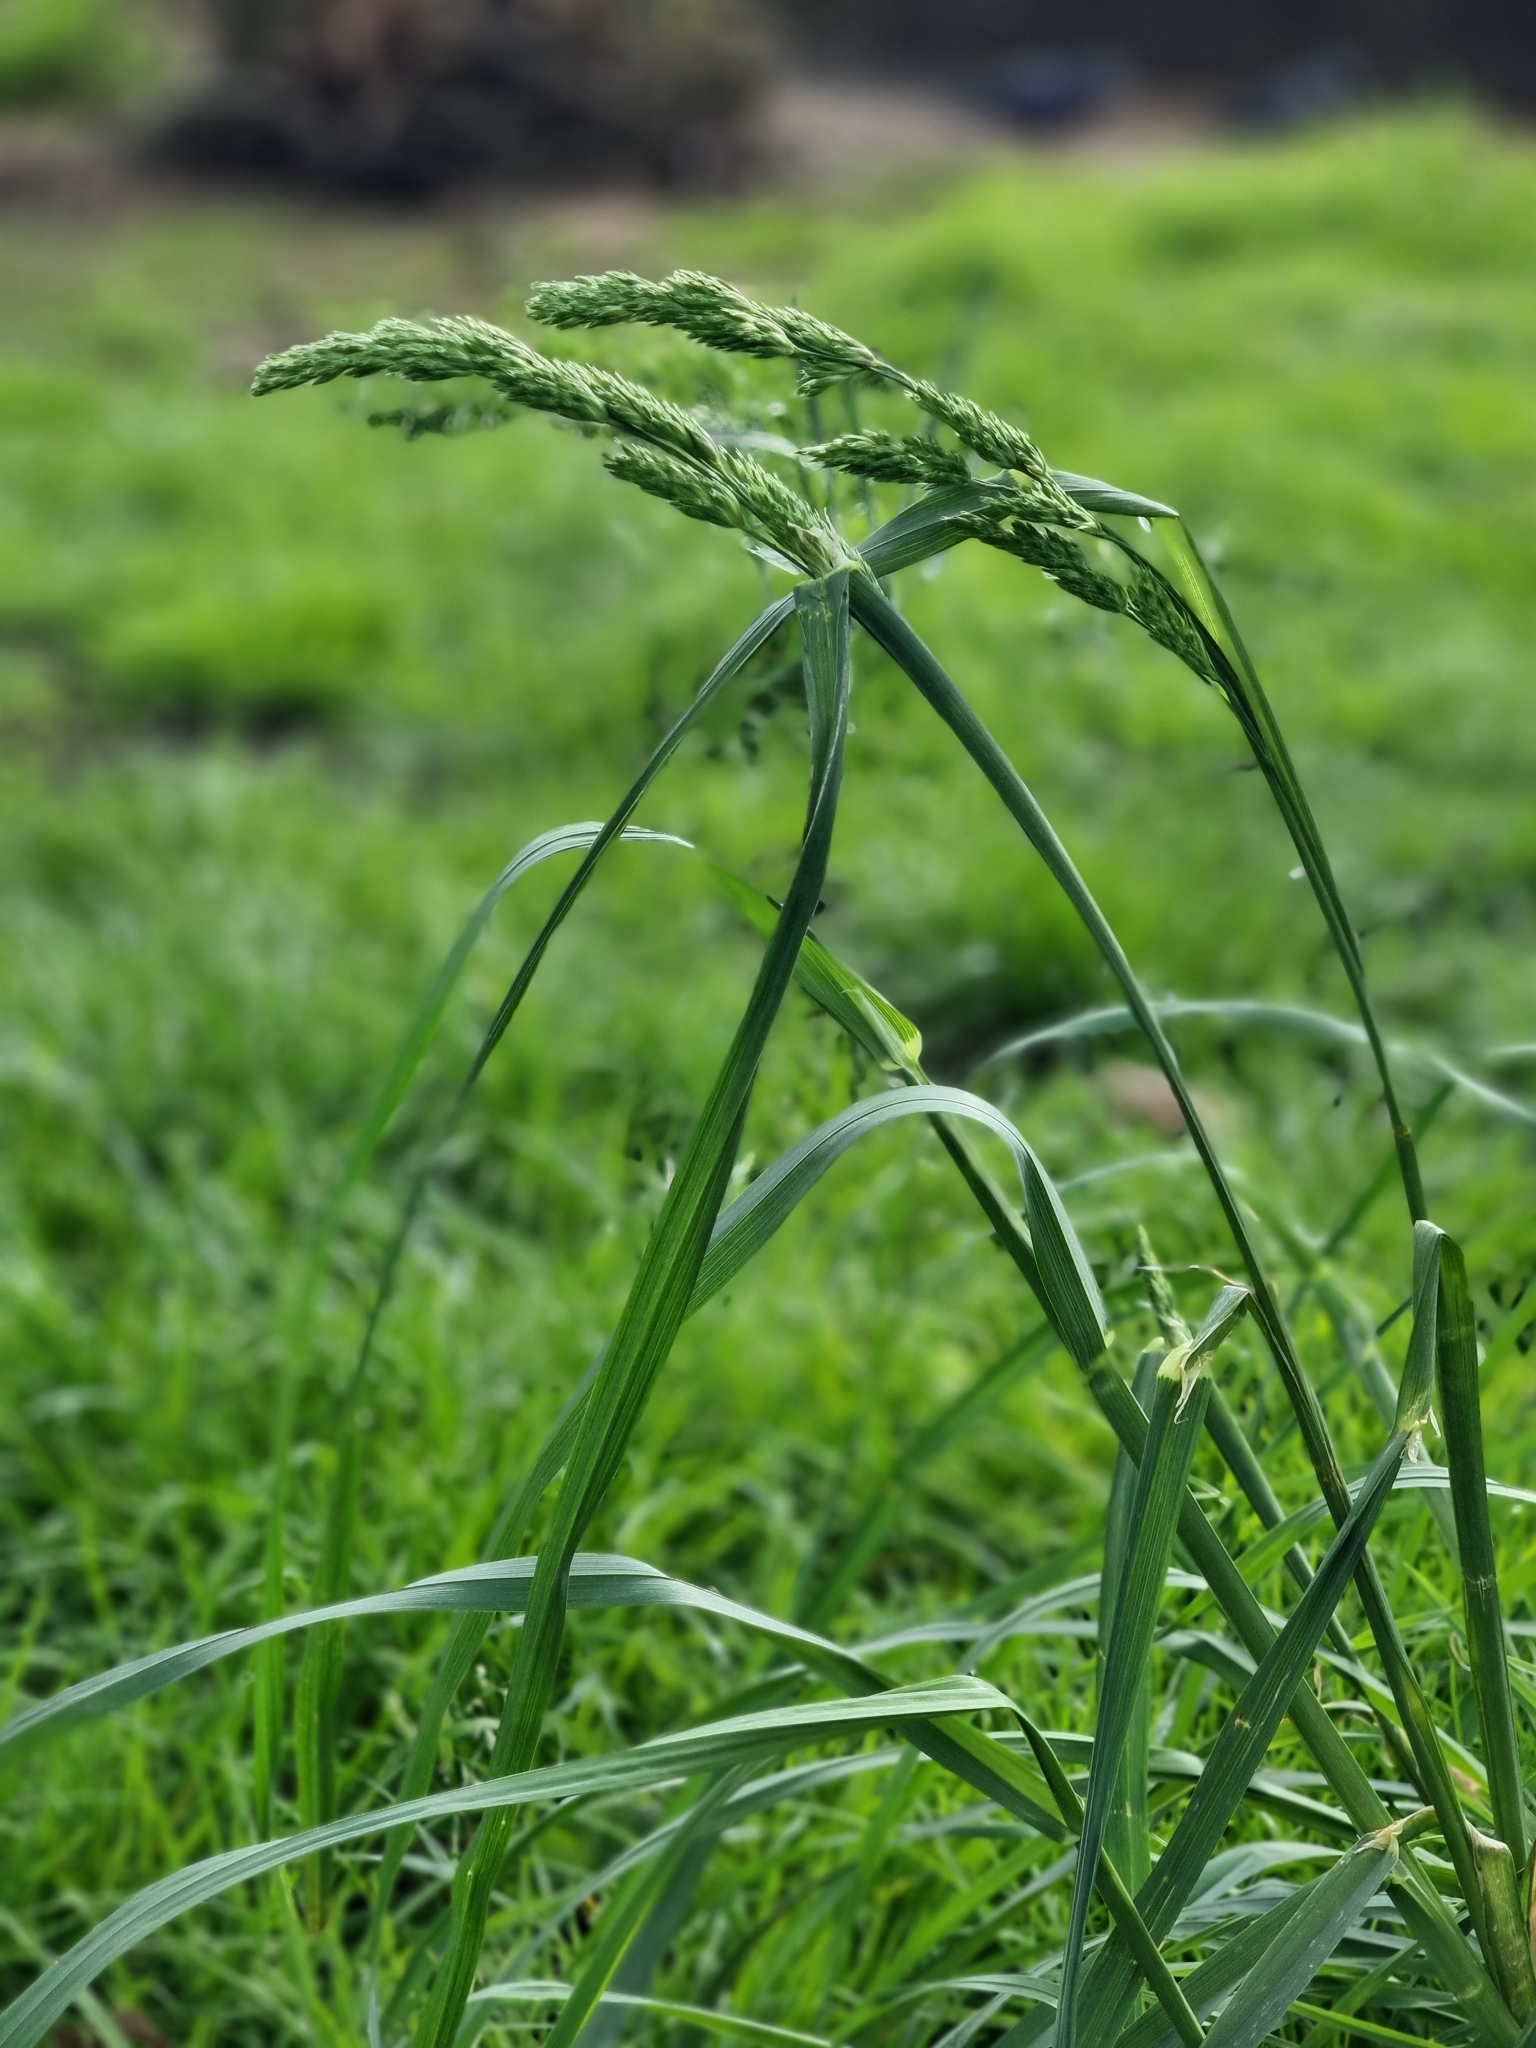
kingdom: Plantae
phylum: Tracheophyta
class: Liliopsida
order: Poales
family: Poaceae
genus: Dactylis
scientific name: Dactylis glomerata
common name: Orchardgrass
